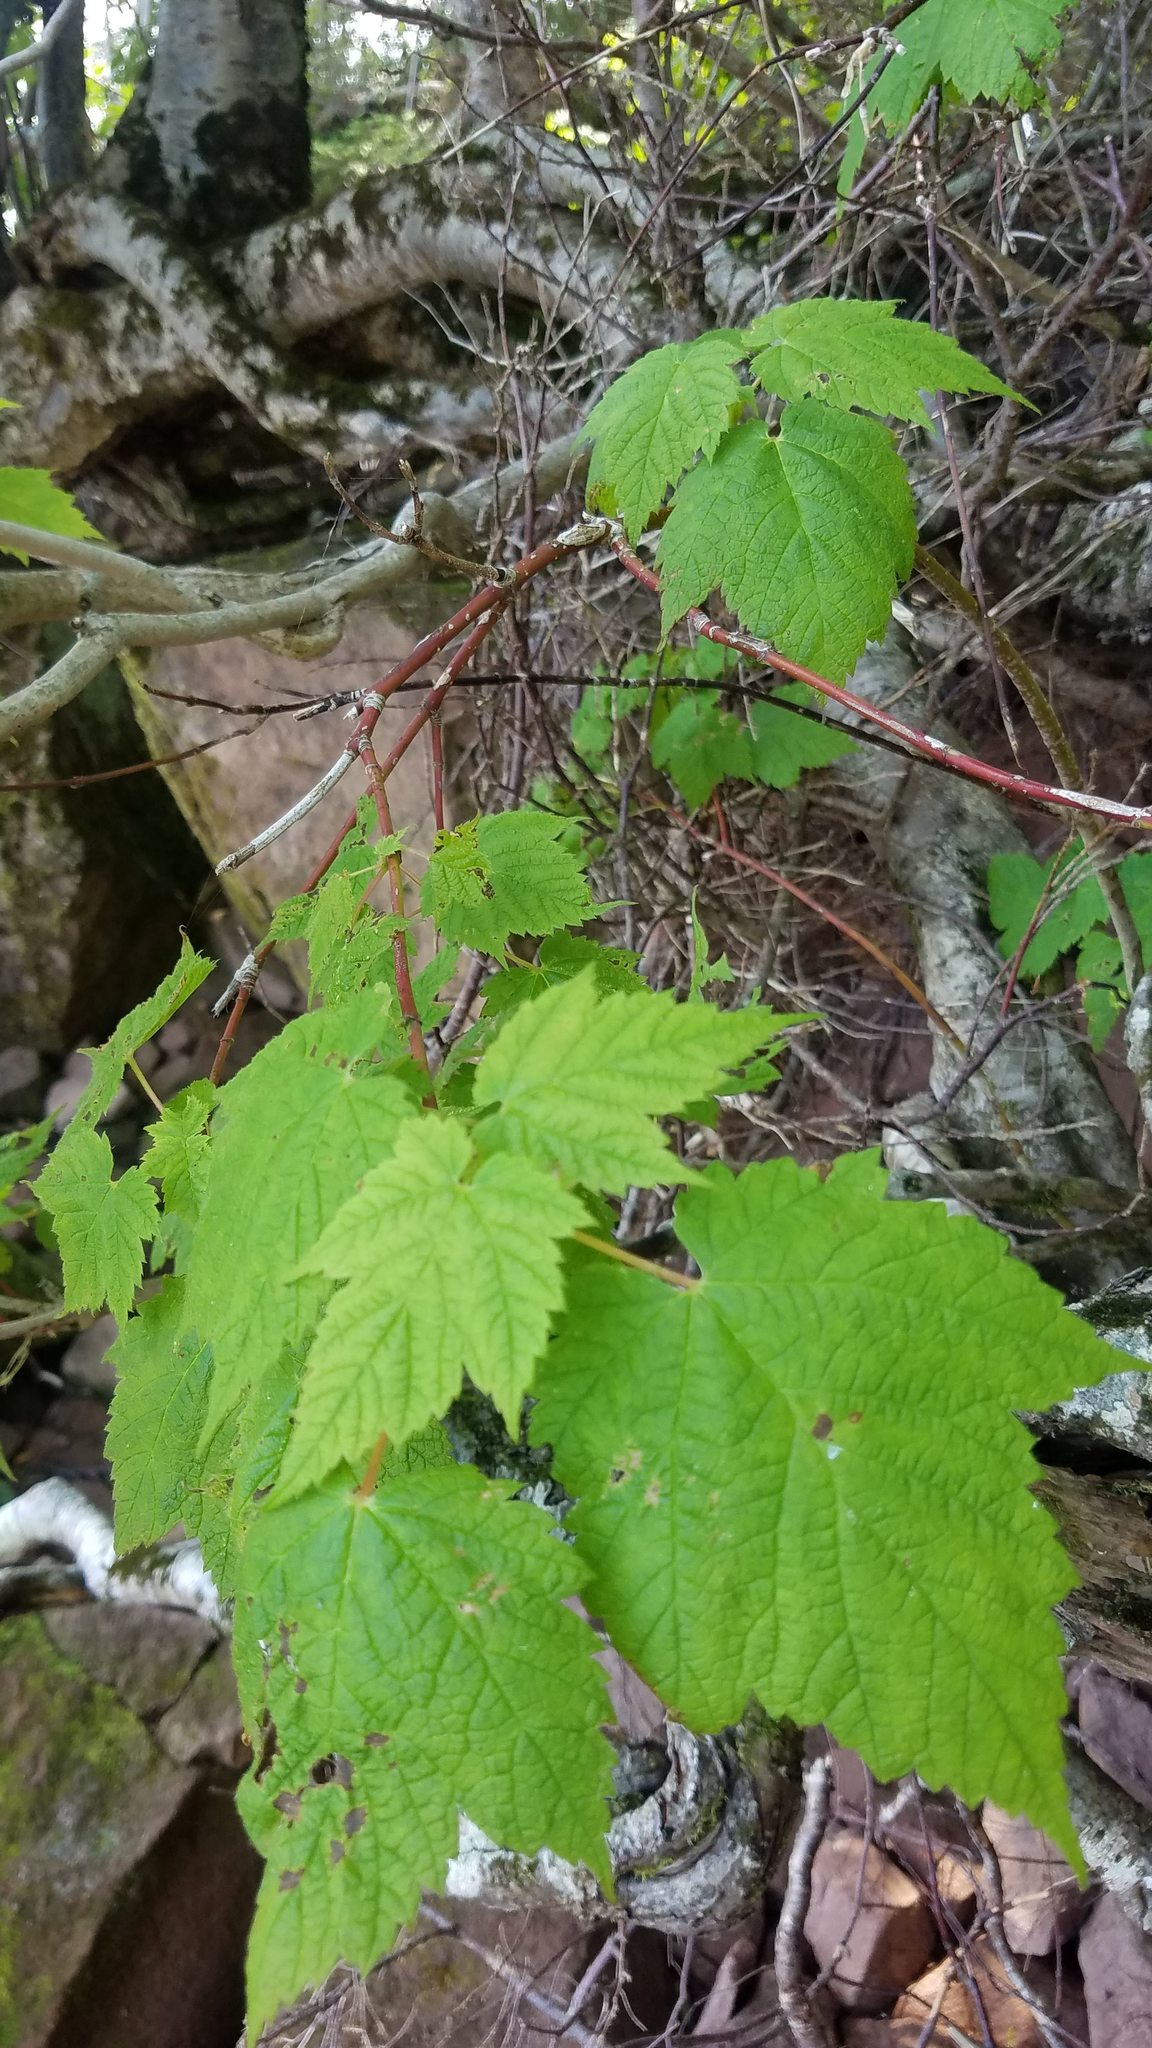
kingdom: Plantae
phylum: Tracheophyta
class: Magnoliopsida
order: Sapindales
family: Sapindaceae
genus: Acer
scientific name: Acer spicatum
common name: Mountain maple
